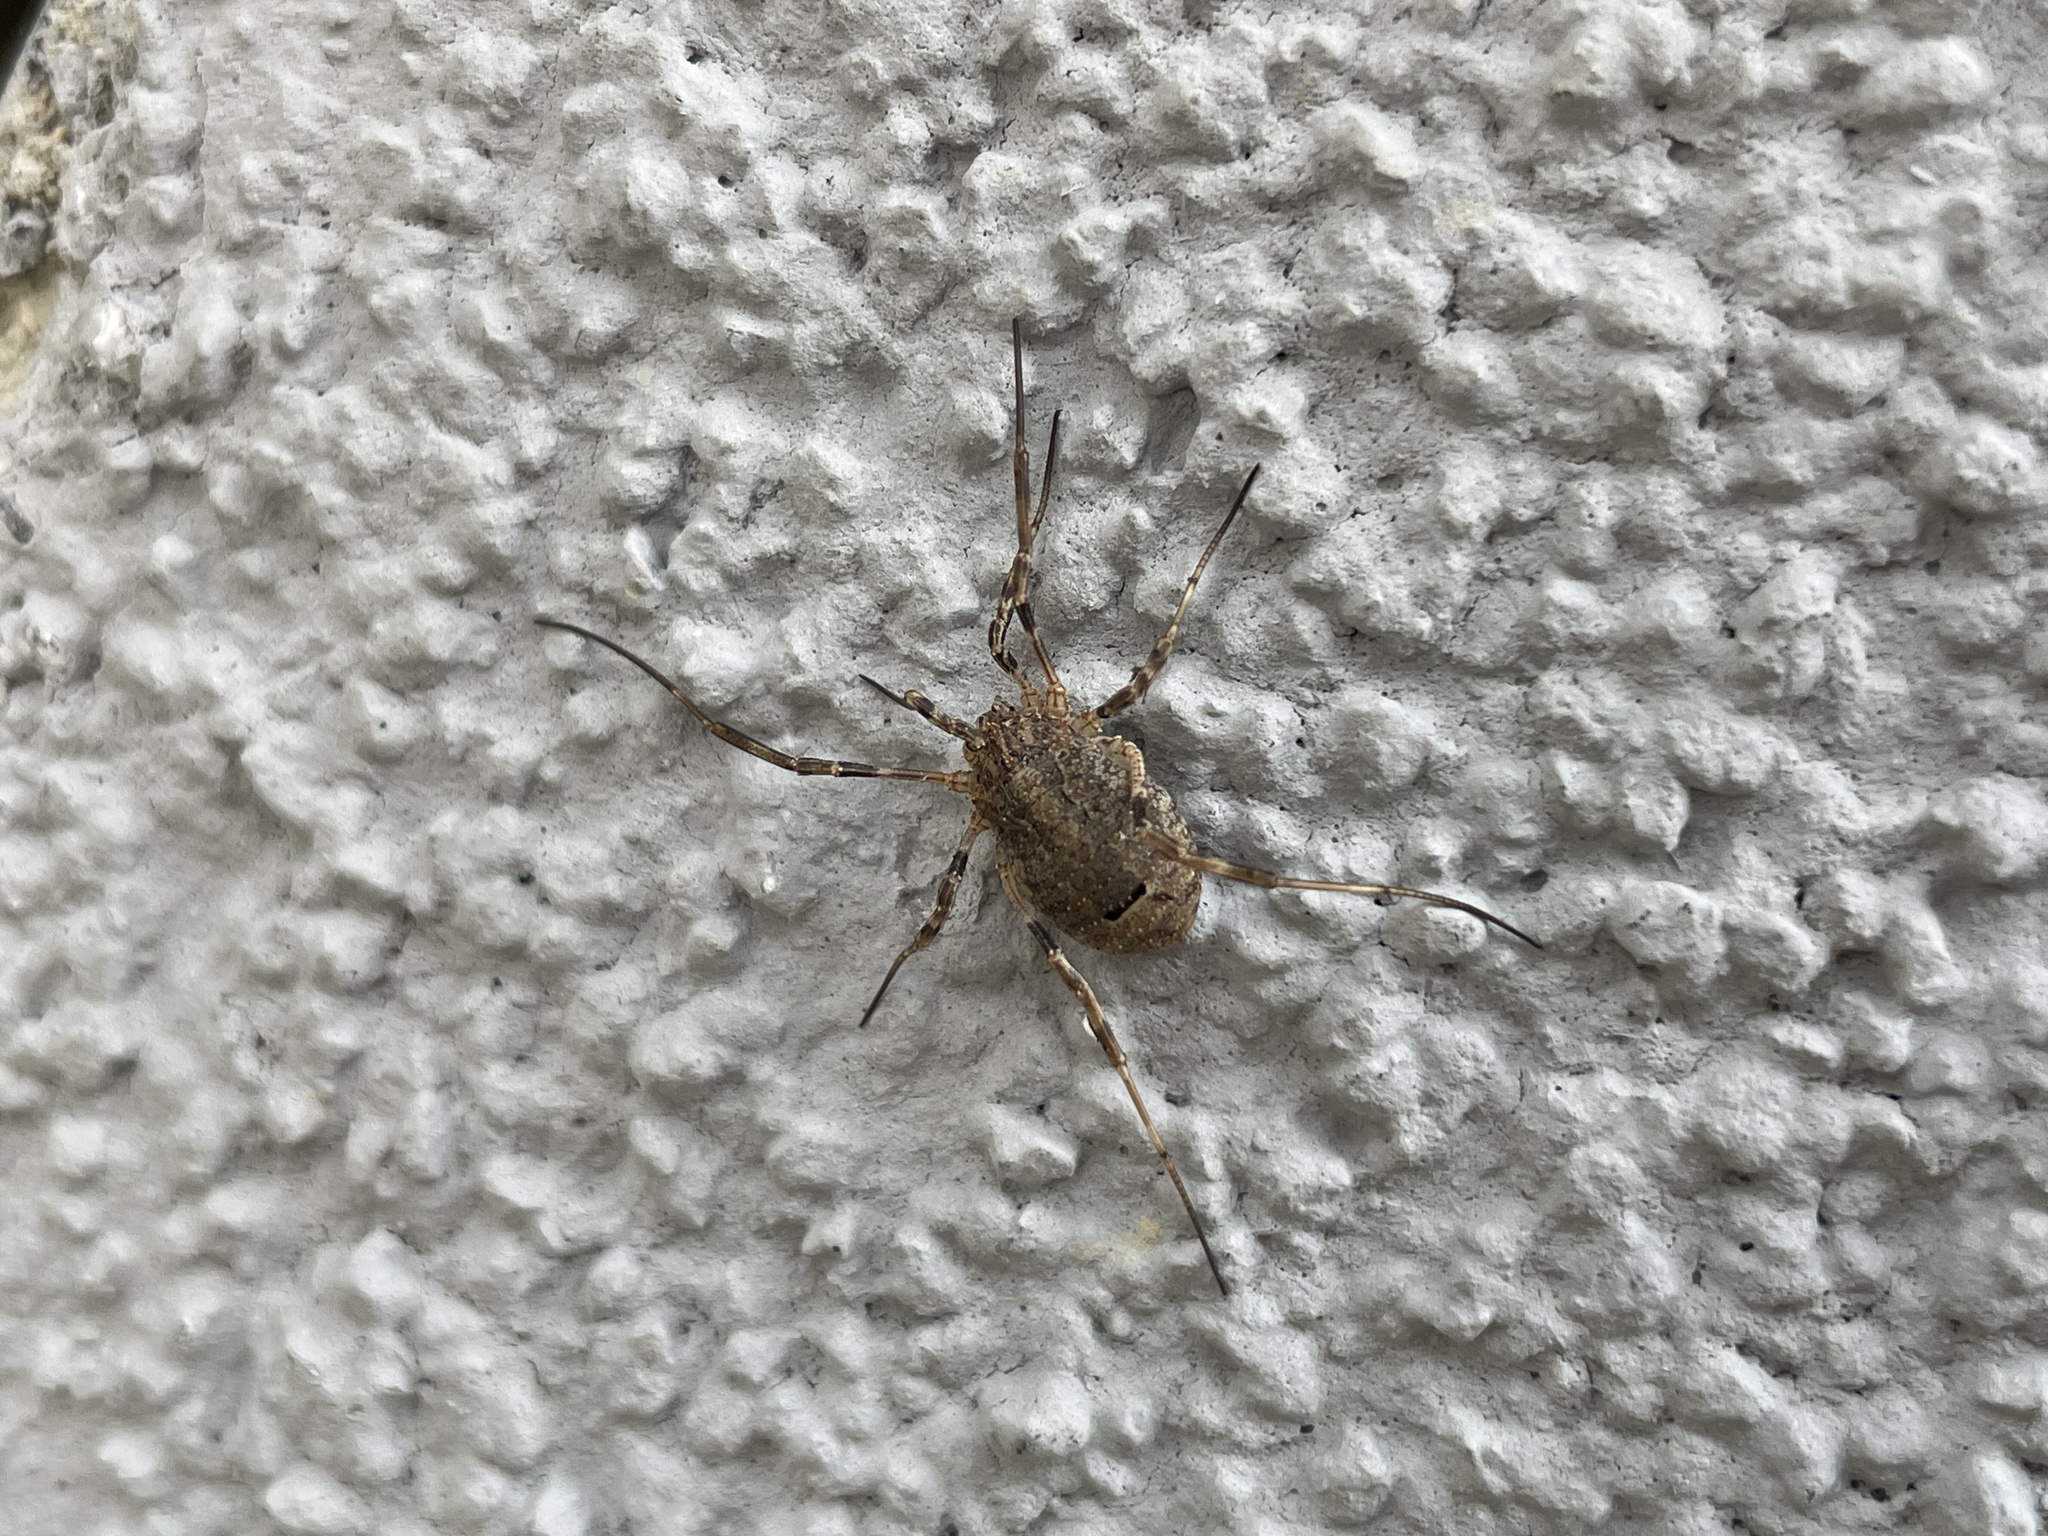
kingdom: Animalia
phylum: Arthropoda
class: Arachnida
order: Opiliones
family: Phalangiidae
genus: Odiellus
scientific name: Odiellus spinosus
